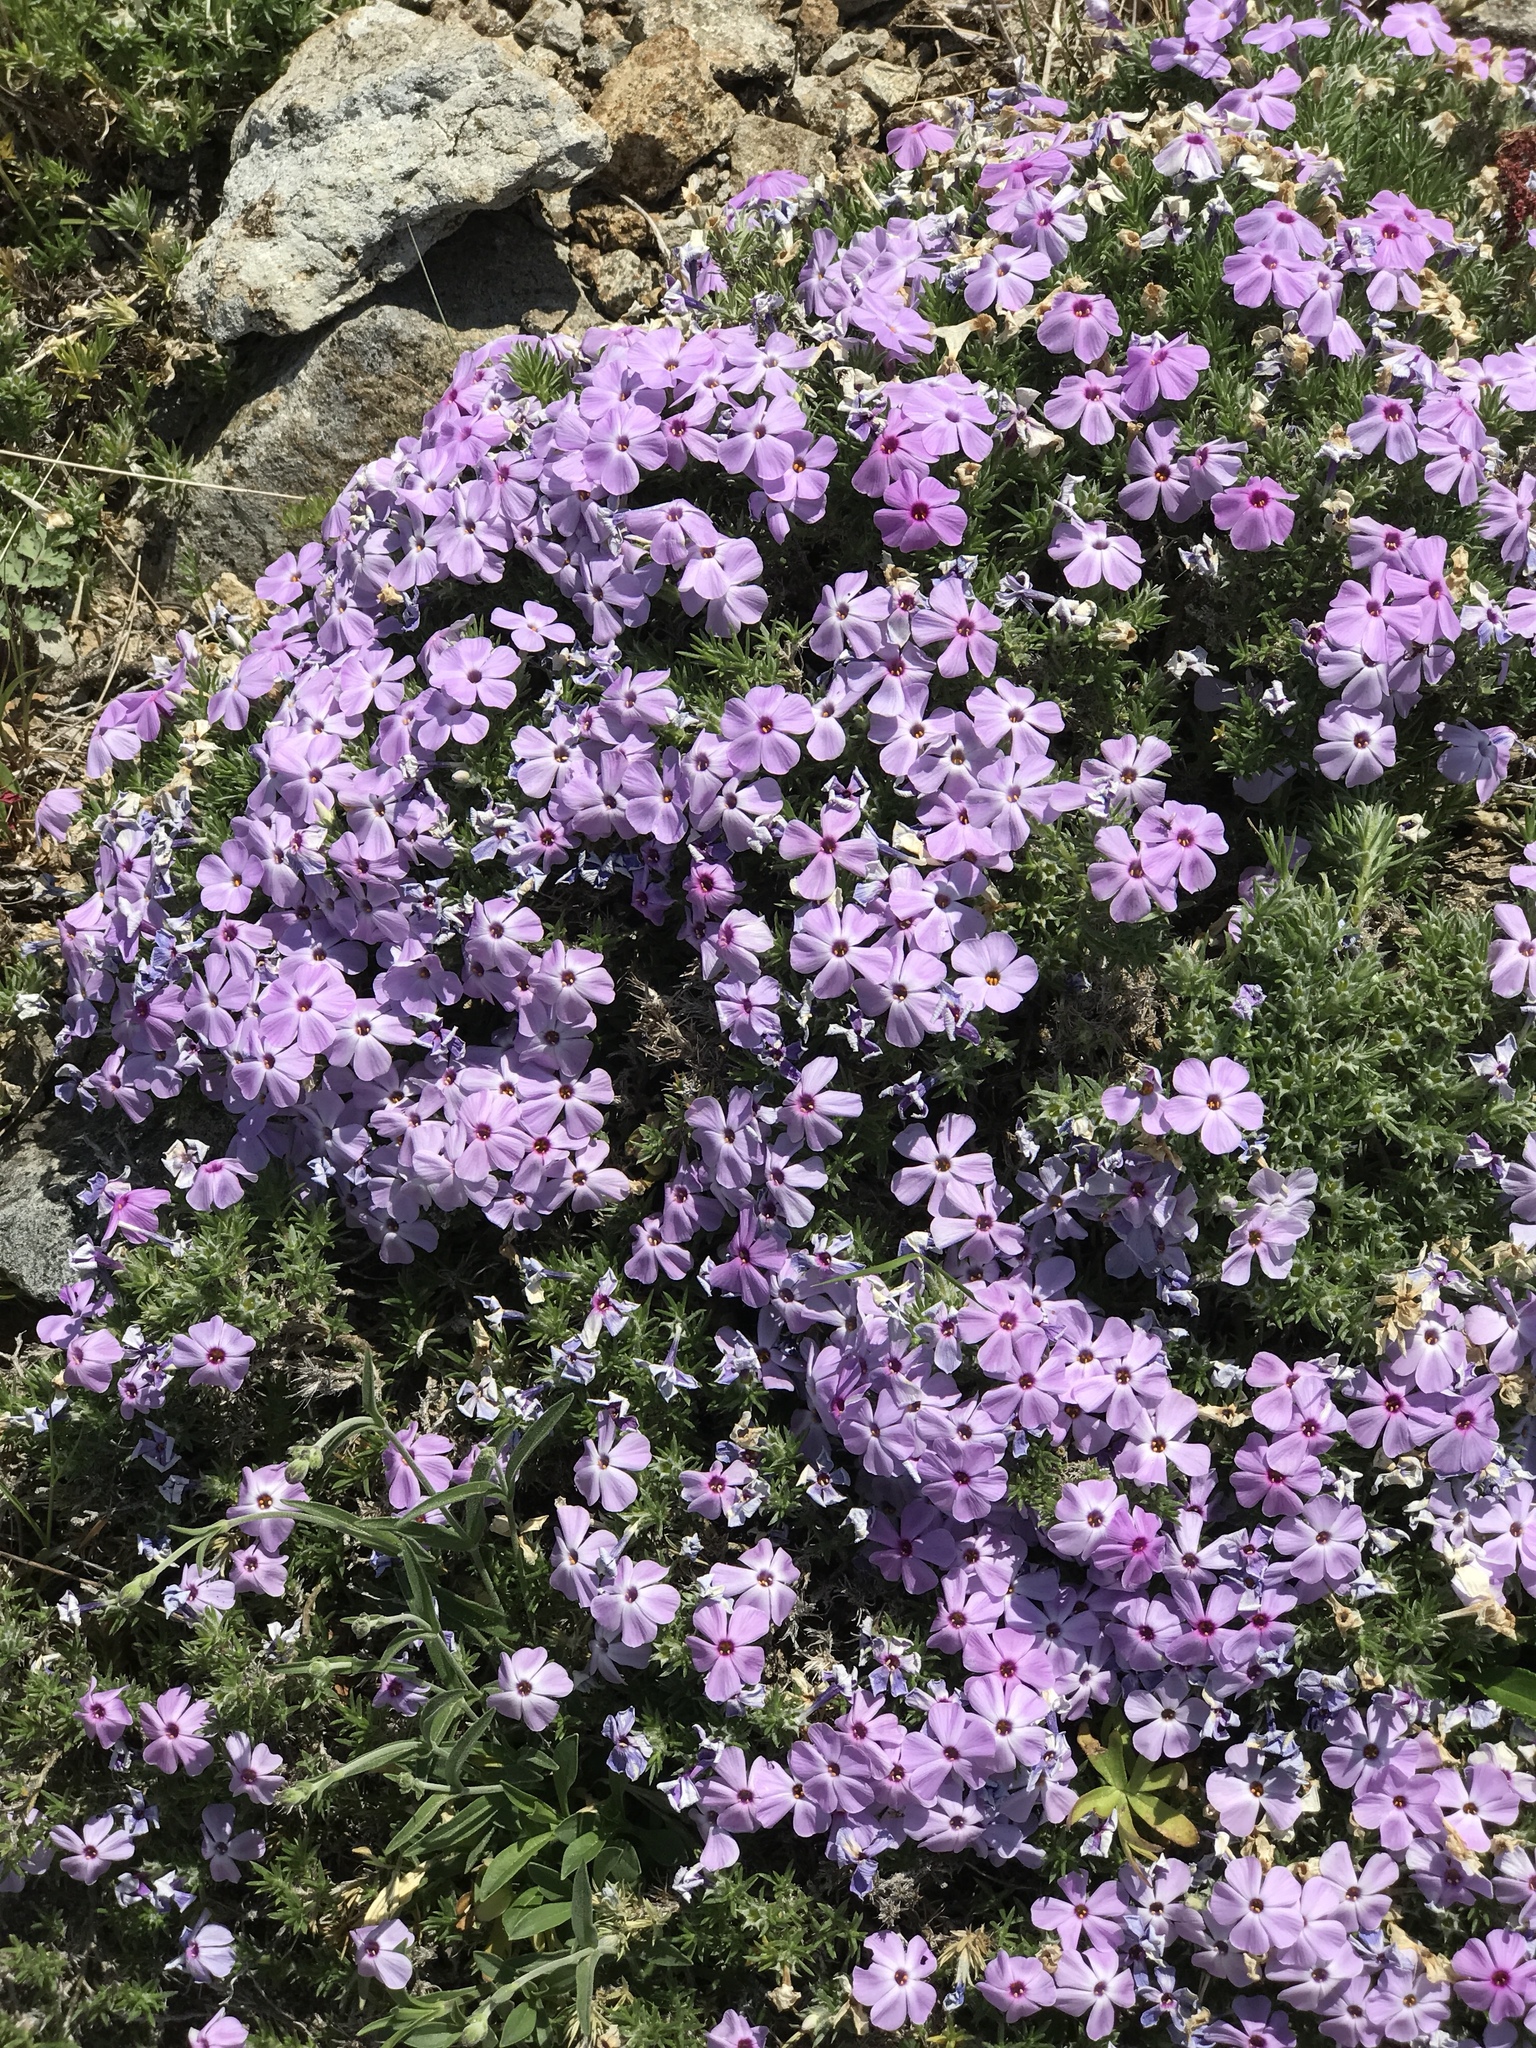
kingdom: Plantae
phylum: Tracheophyta
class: Magnoliopsida
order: Ericales
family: Polemoniaceae
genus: Phlox
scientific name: Phlox diffusa
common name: Mat phlox
